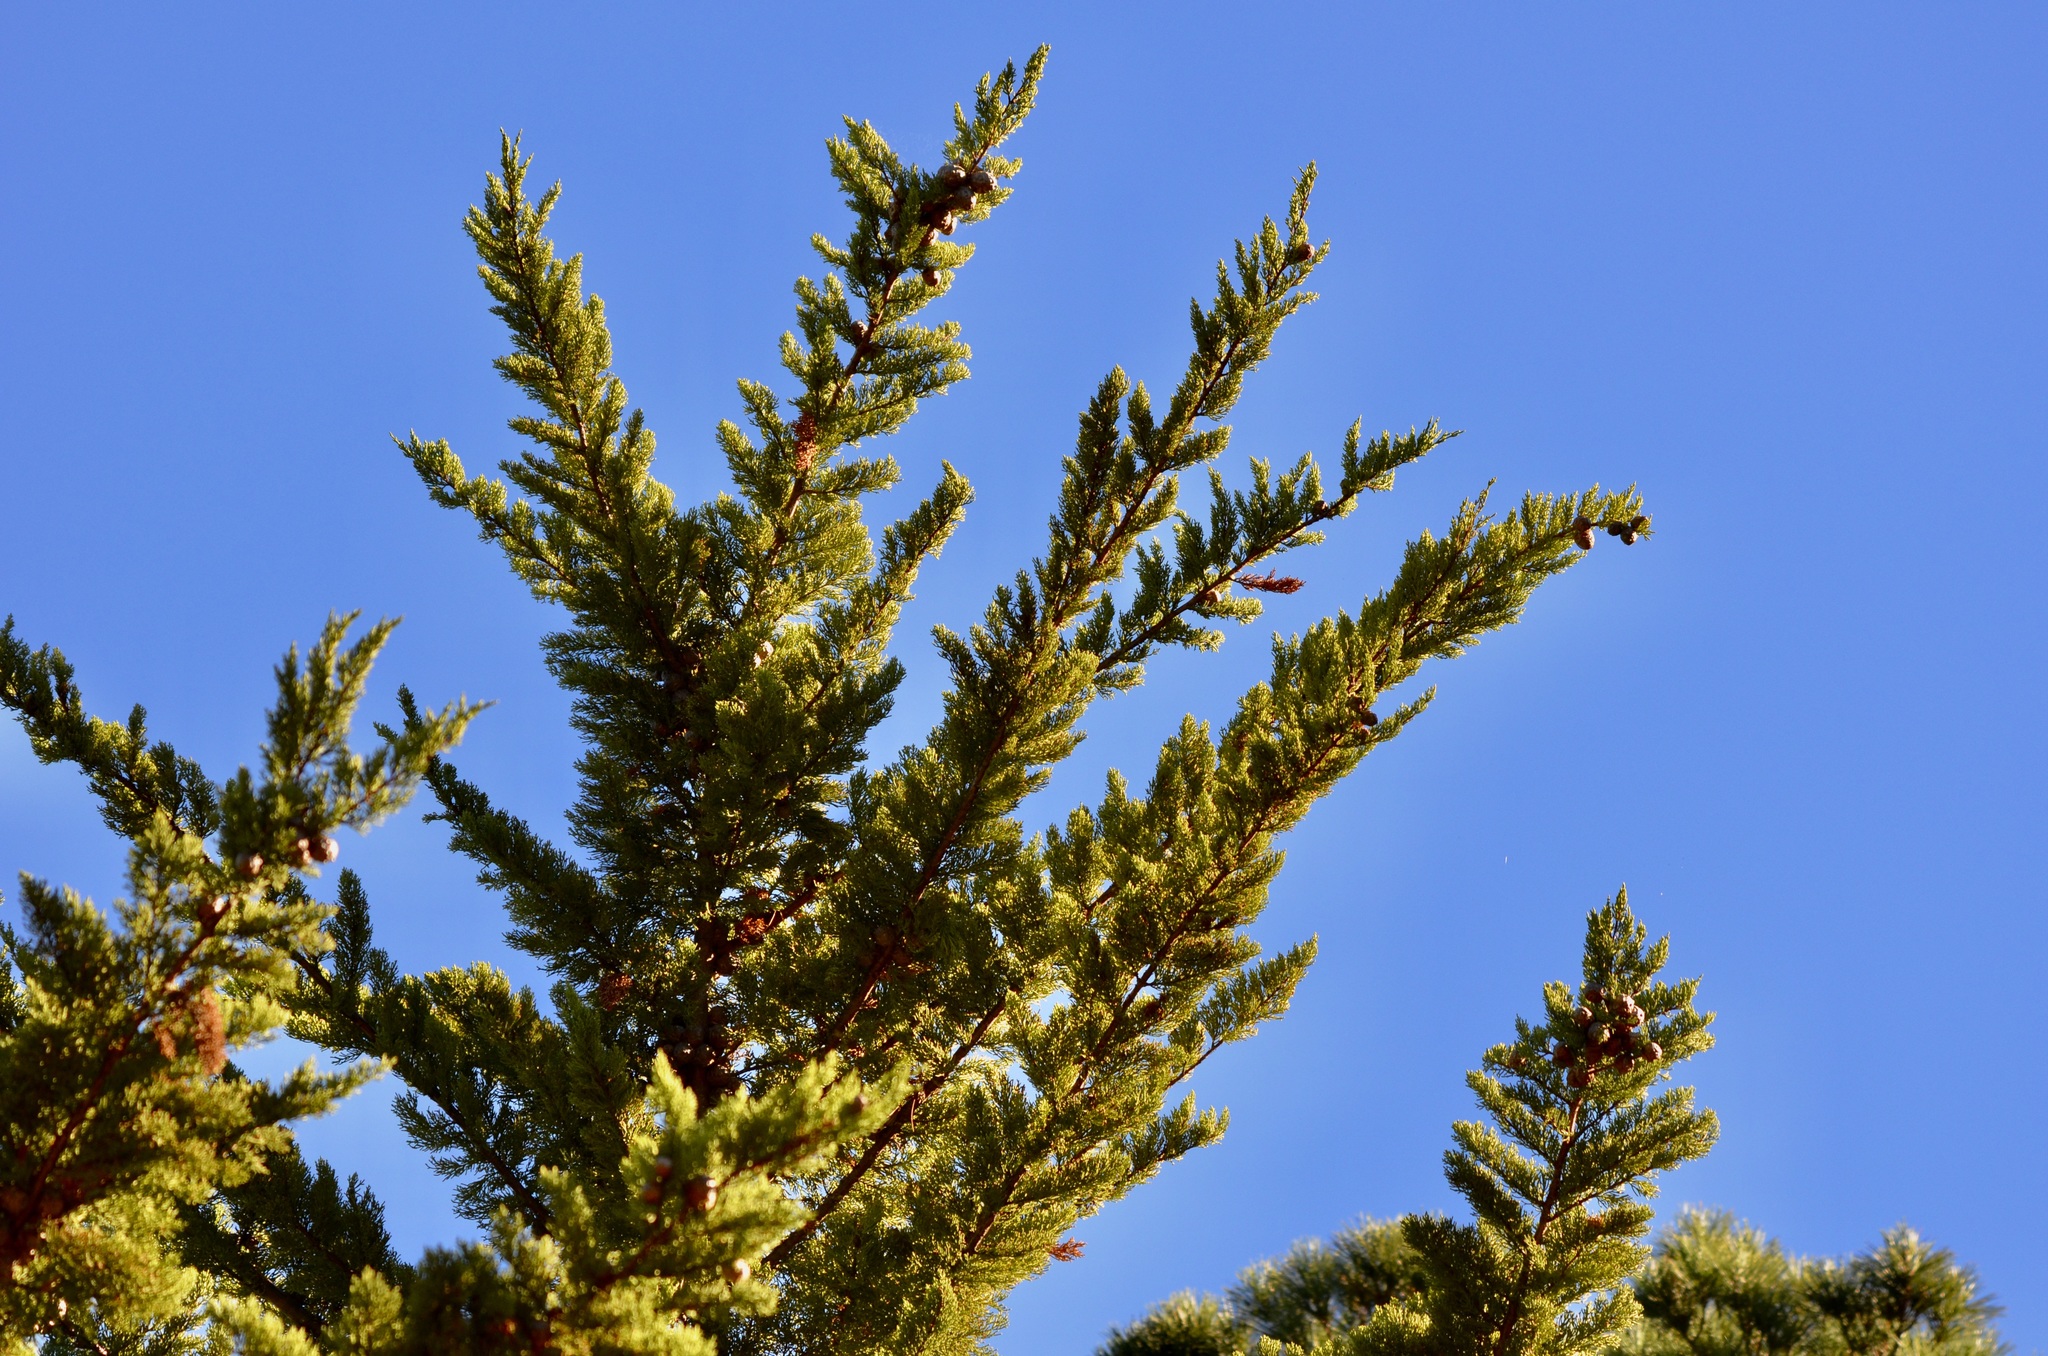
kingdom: Plantae
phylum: Tracheophyta
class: Pinopsida
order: Pinales
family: Cupressaceae
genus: Cupressus
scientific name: Cupressus macrocarpa
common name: Monterey cypress
